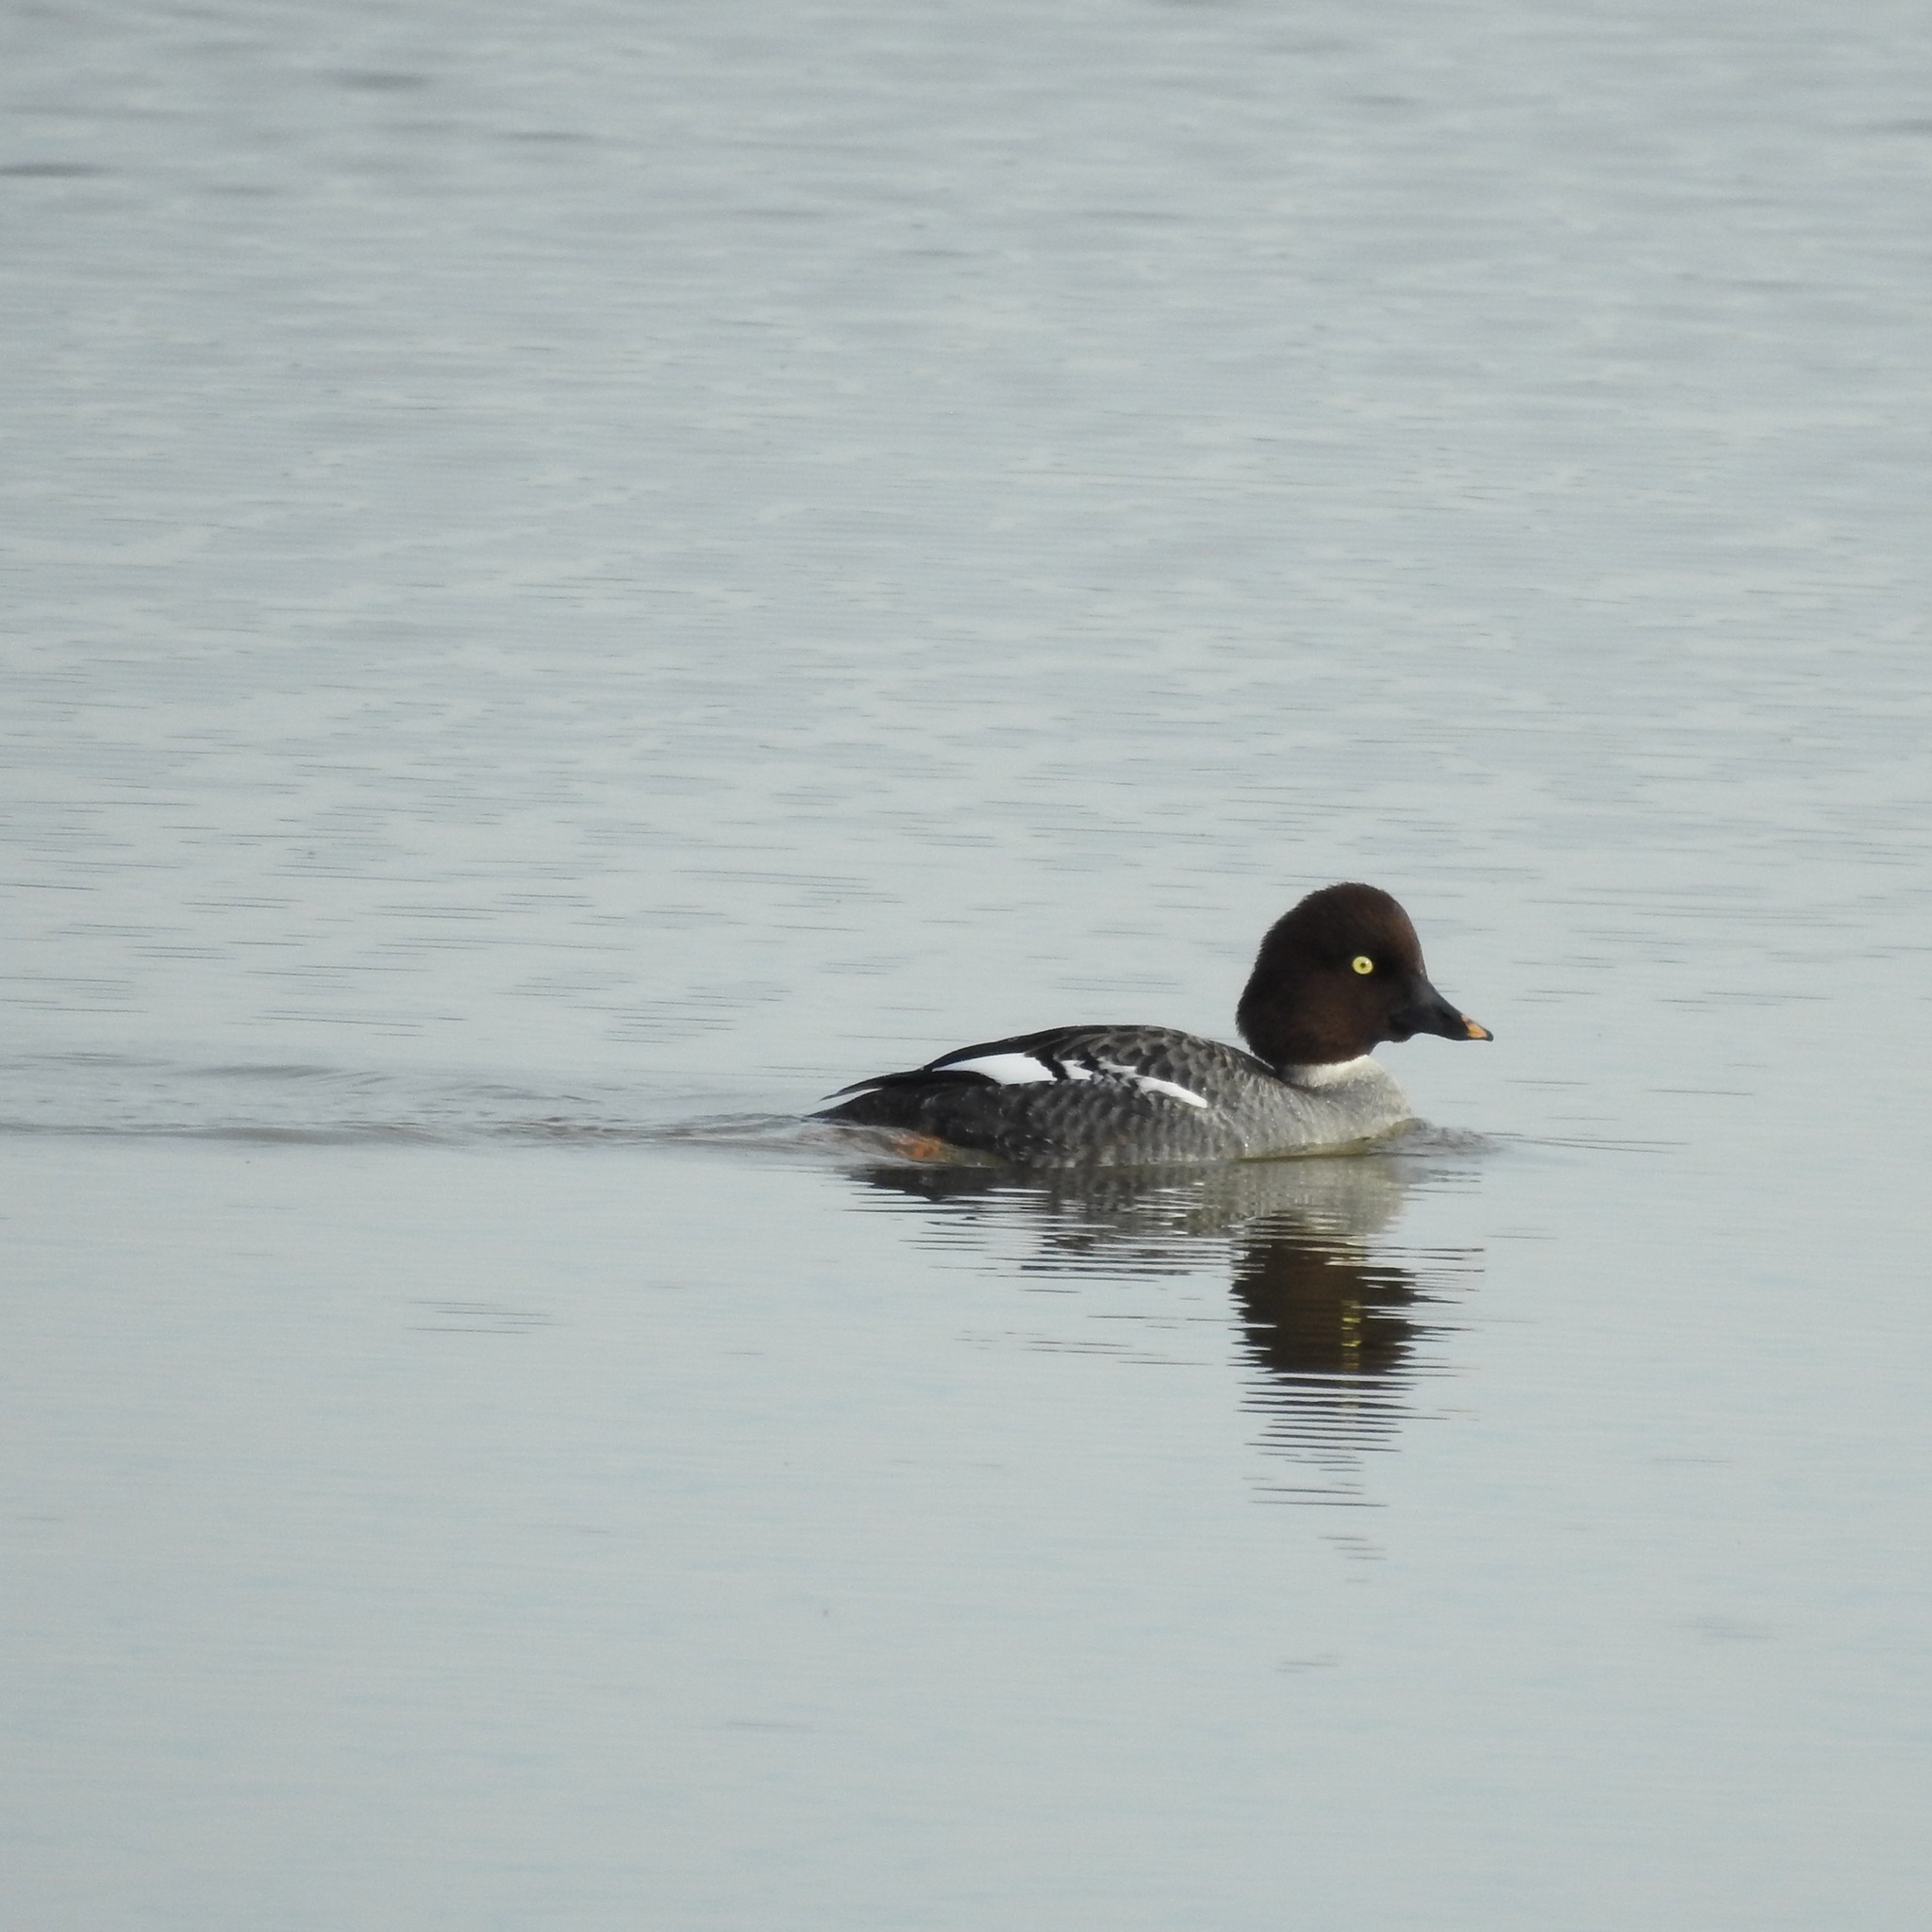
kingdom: Animalia
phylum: Chordata
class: Aves
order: Anseriformes
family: Anatidae
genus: Bucephala
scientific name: Bucephala clangula
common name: Common goldeneye
